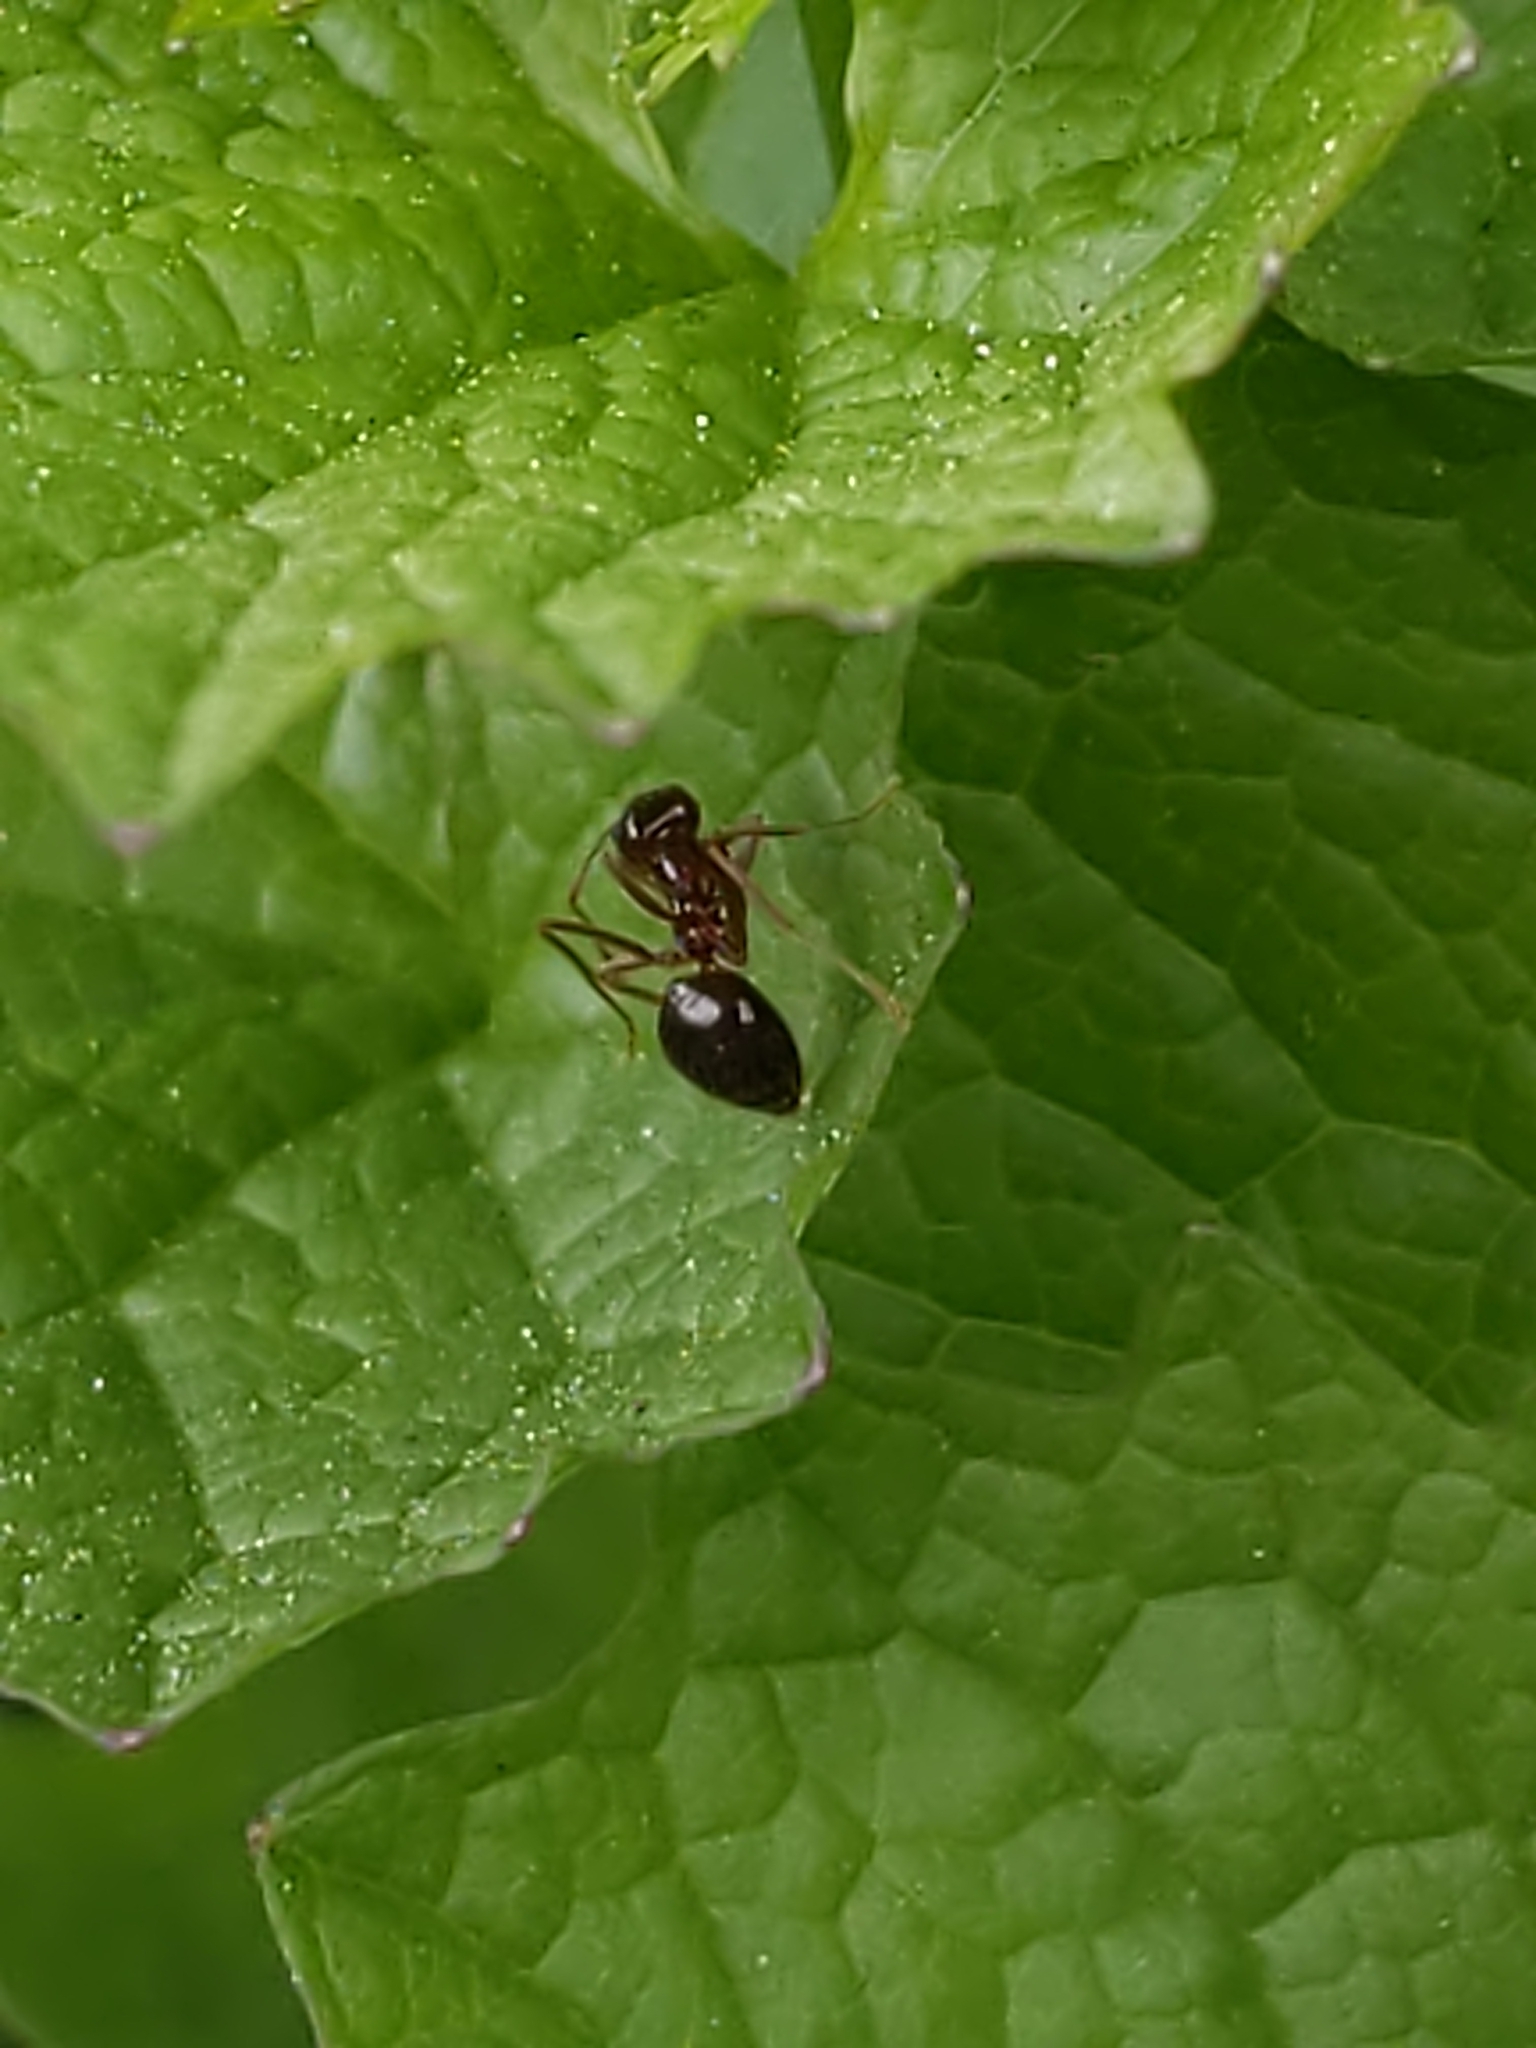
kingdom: Animalia
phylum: Arthropoda
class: Insecta
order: Hymenoptera
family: Formicidae
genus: Prenolepis
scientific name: Prenolepis imparis
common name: Small honey ant
